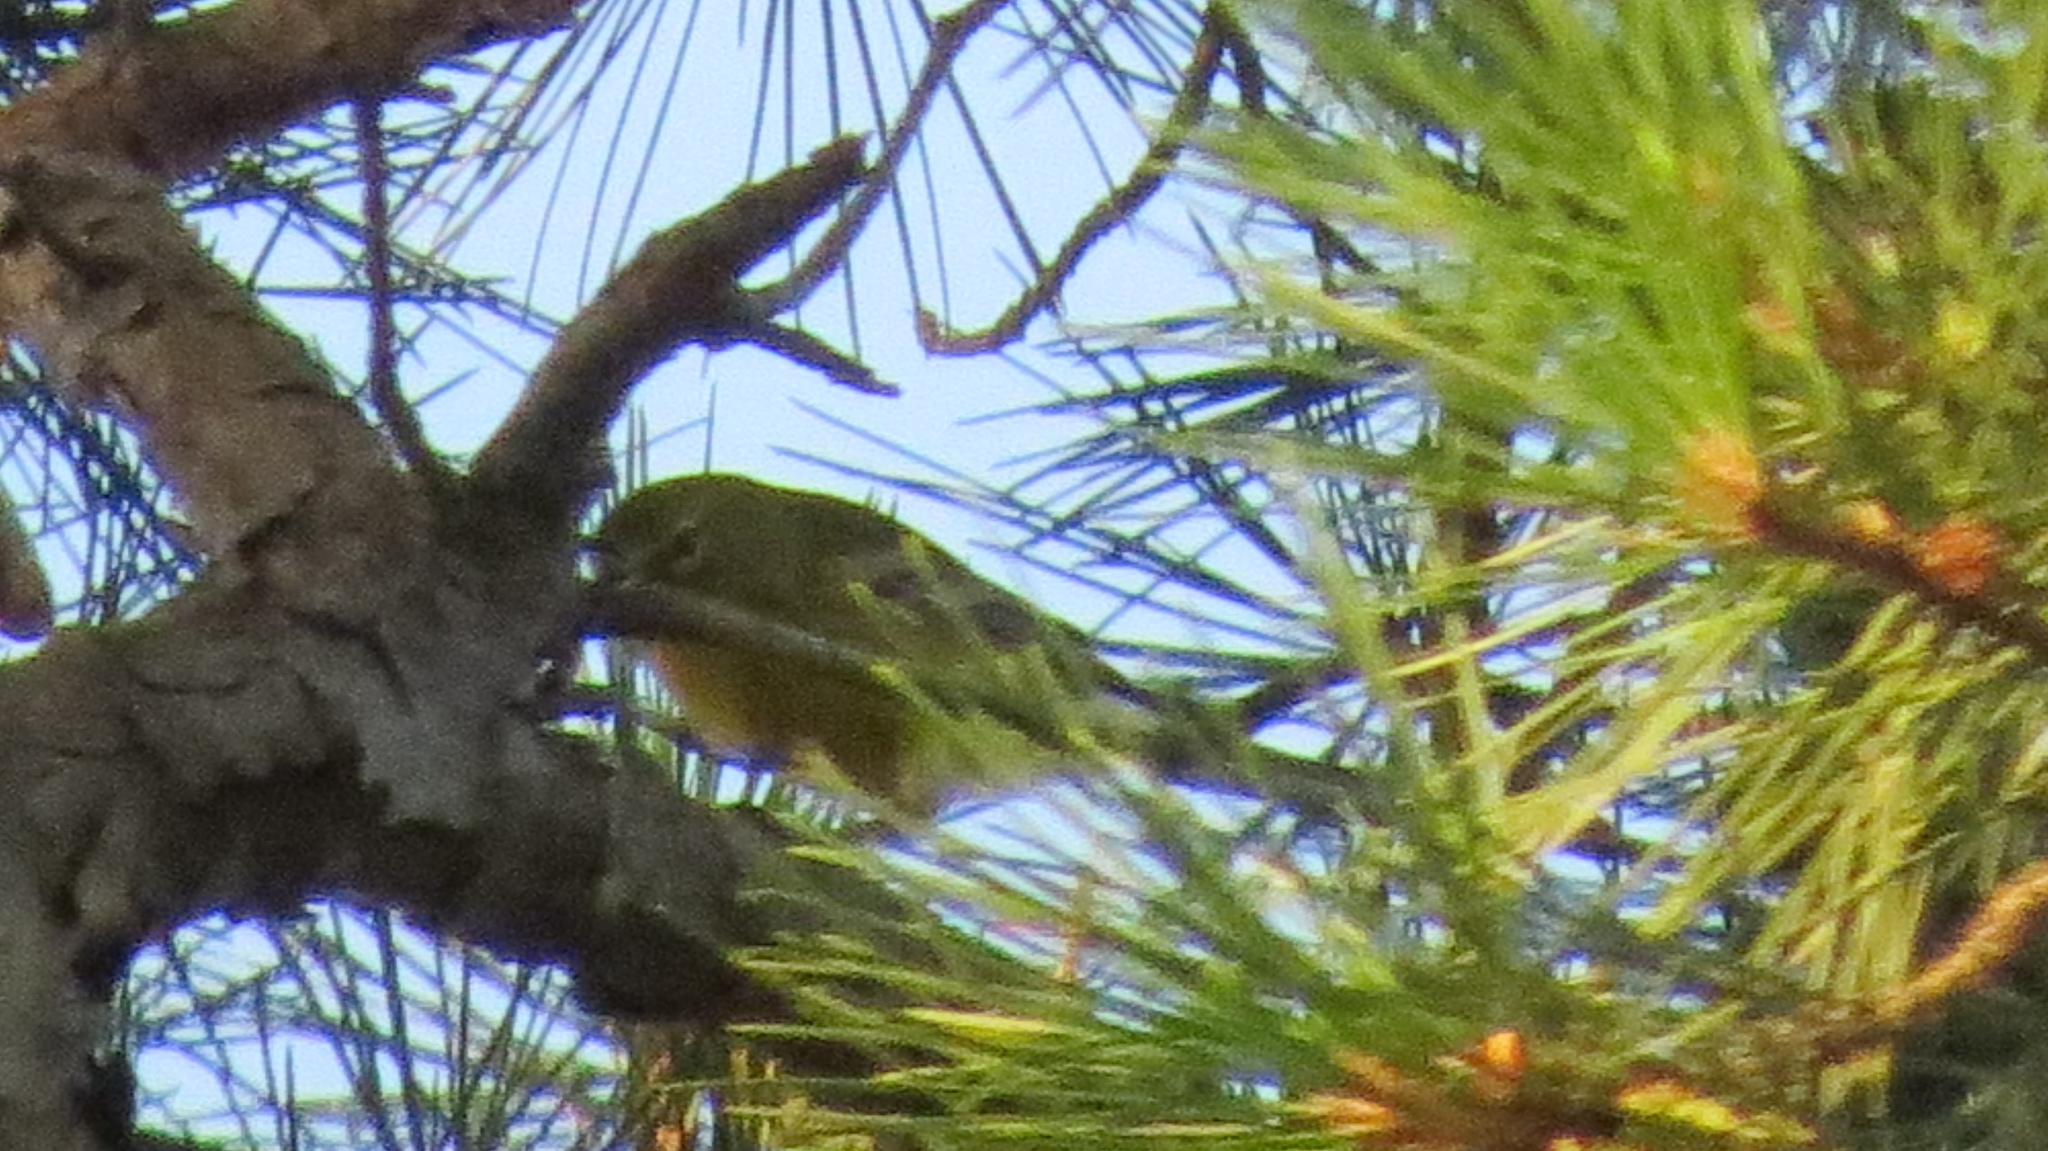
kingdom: Animalia
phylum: Chordata
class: Aves
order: Passeriformes
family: Parulidae
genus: Setophaga
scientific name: Setophaga pinus
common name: Pine warbler
